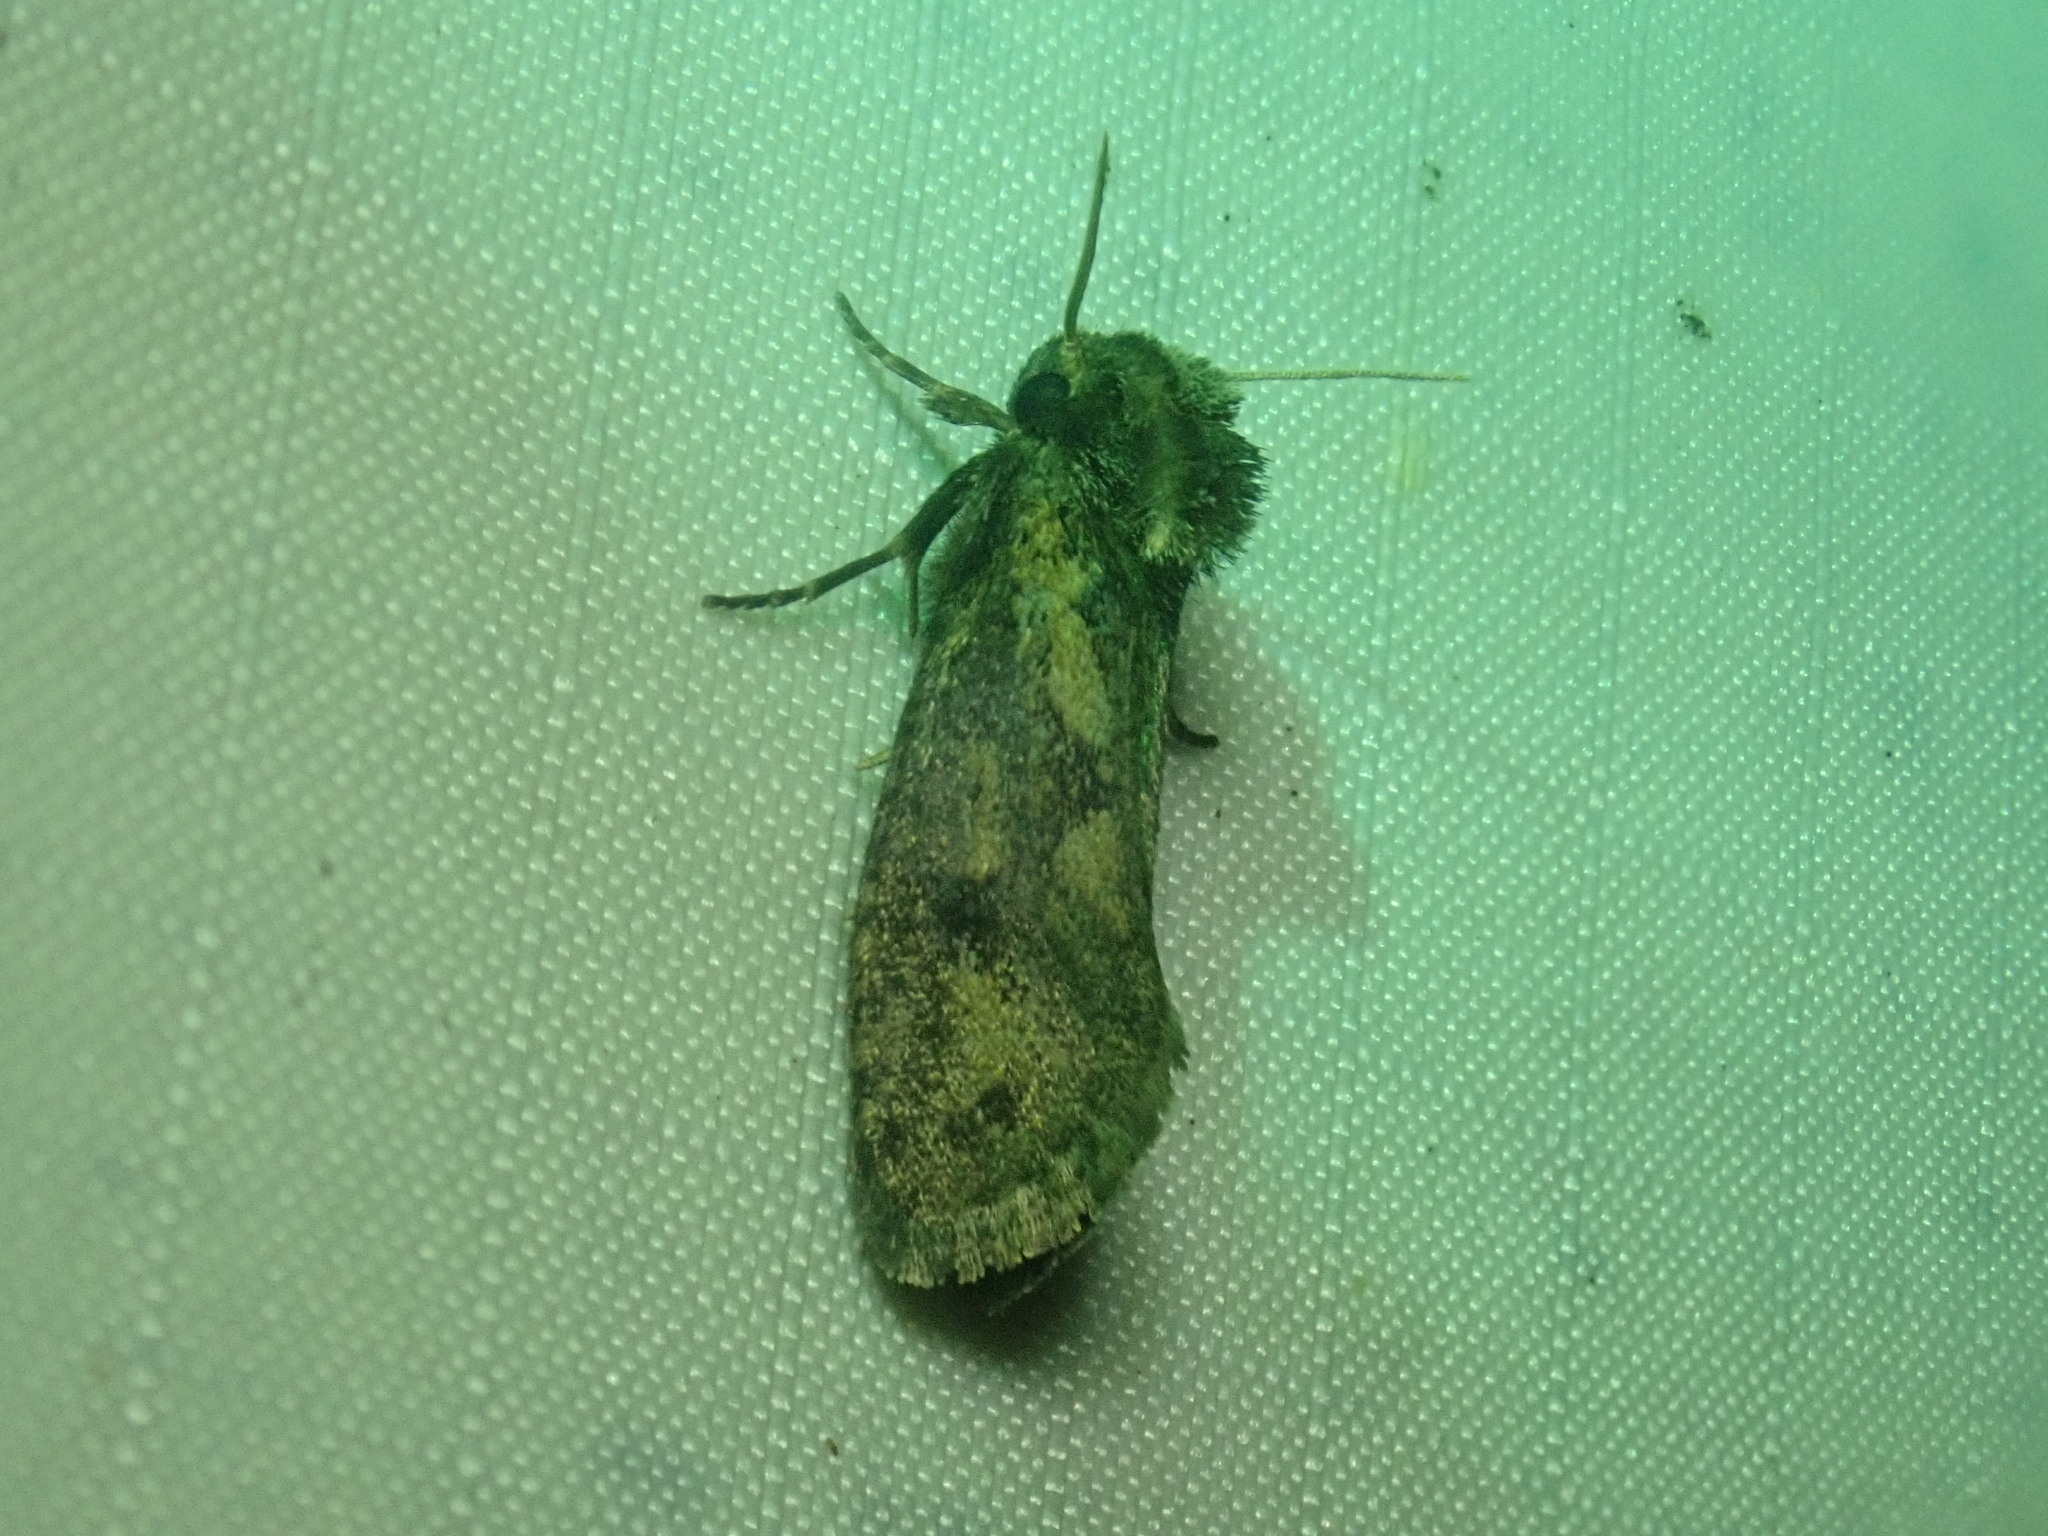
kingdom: Animalia
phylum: Arthropoda
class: Insecta
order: Lepidoptera
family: Tineidae
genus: Acrolophus
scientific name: Acrolophus popeanella
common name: Clemens' grass tubeworm moth
